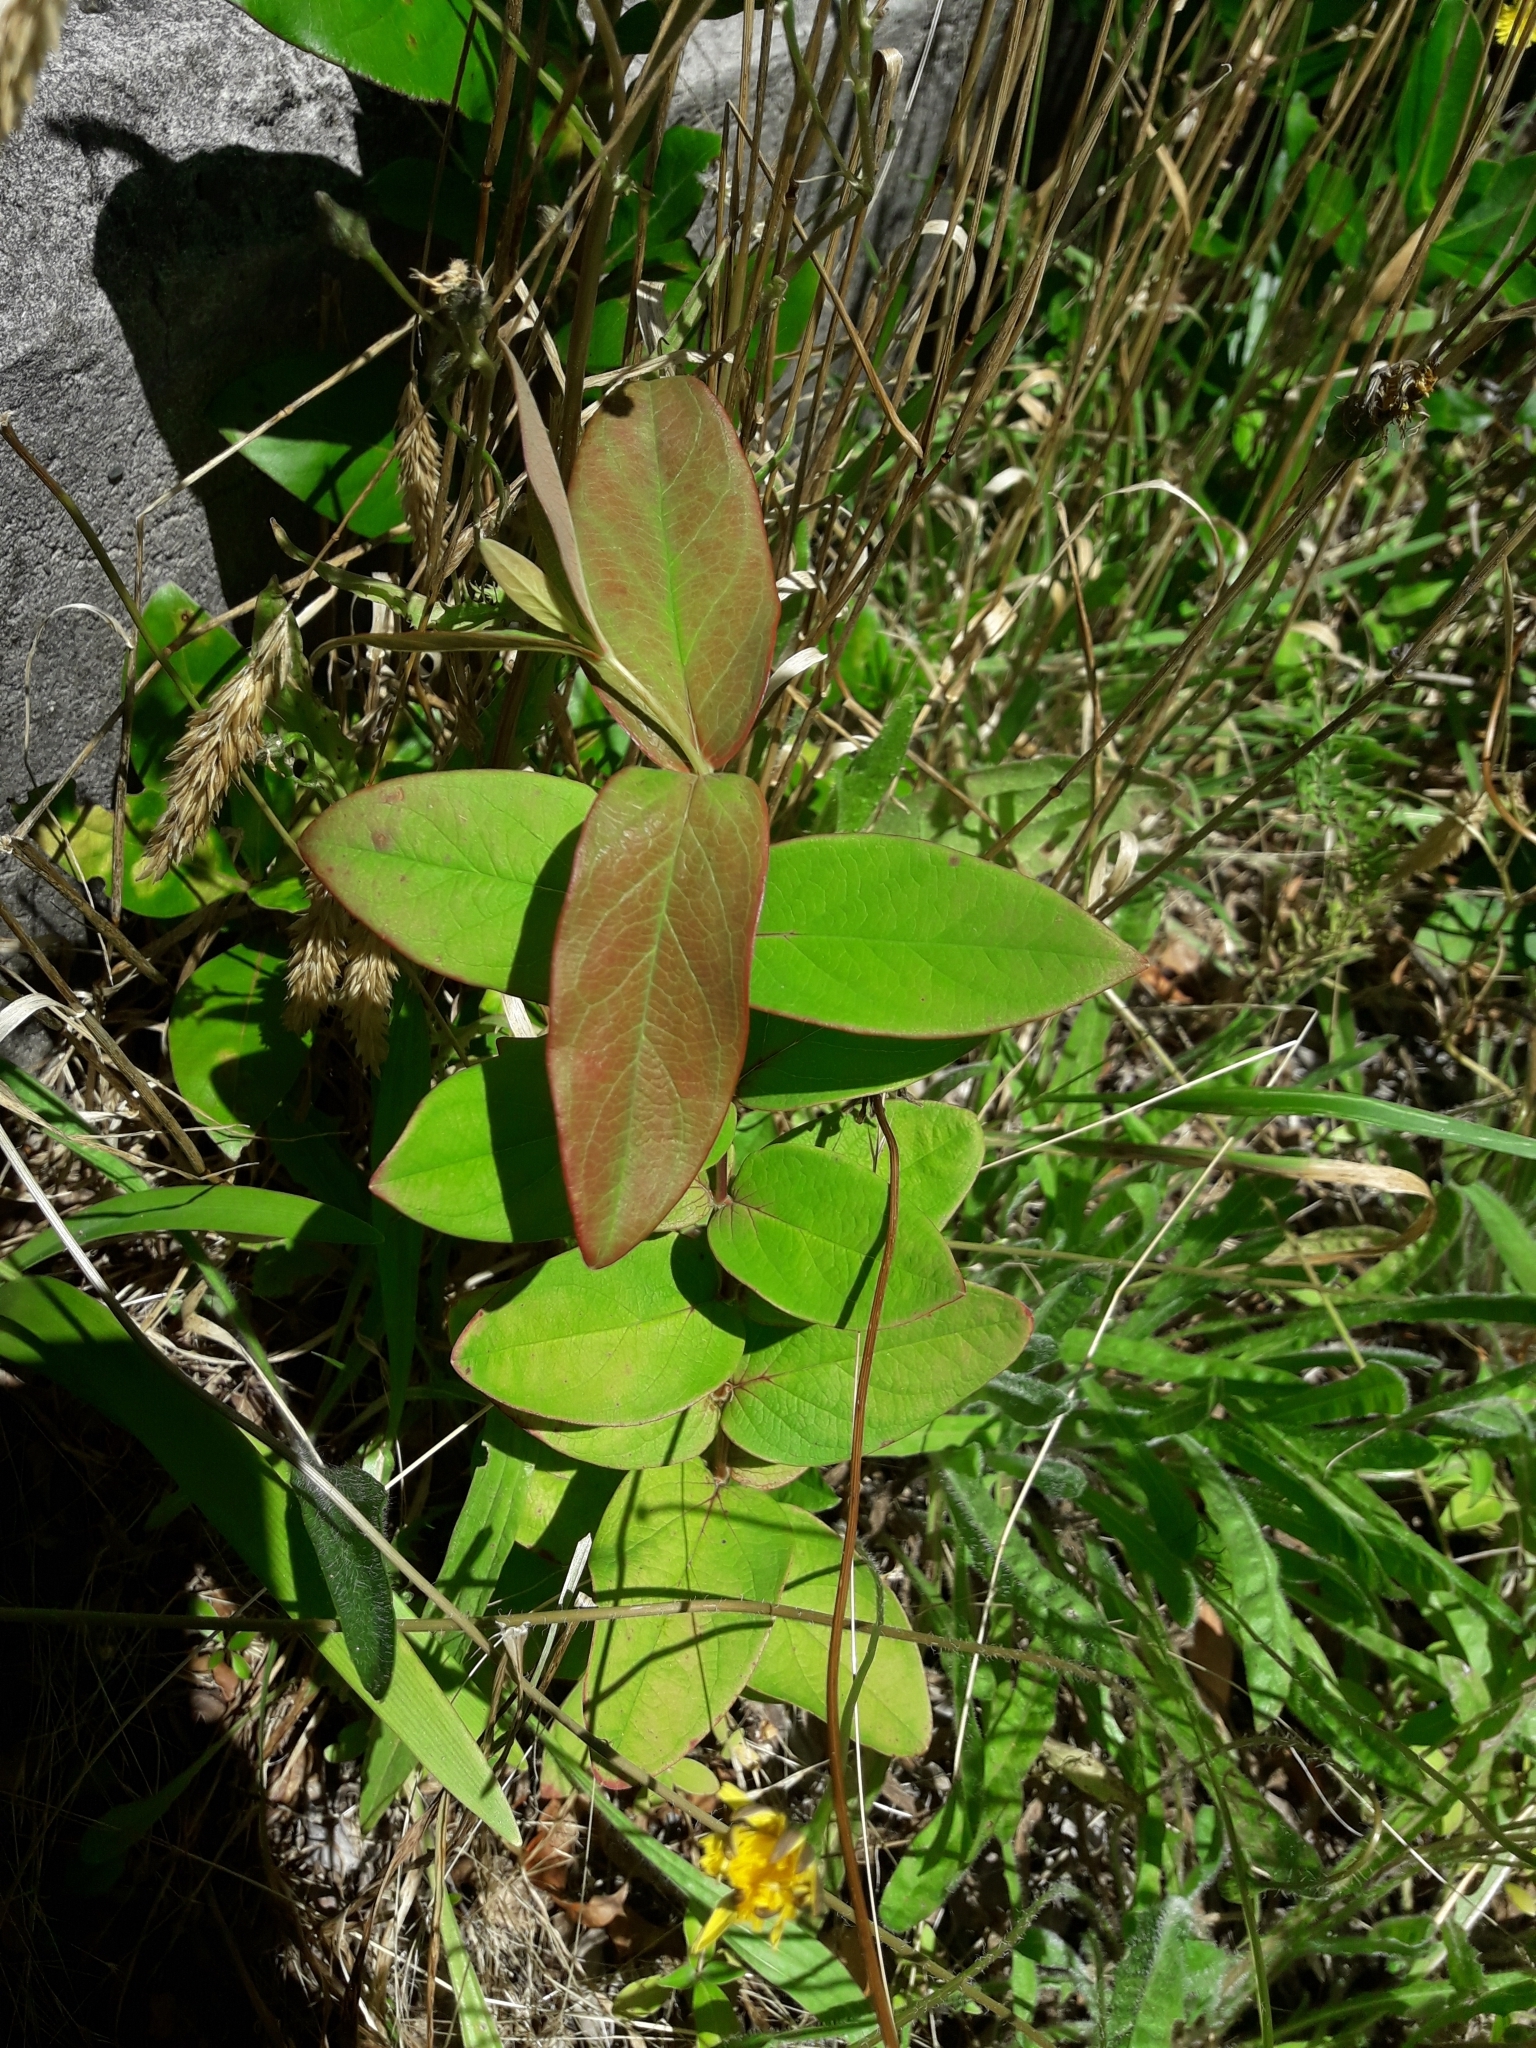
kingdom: Plantae
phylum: Tracheophyta
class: Magnoliopsida
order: Malpighiales
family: Hypericaceae
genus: Hypericum
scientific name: Hypericum androsaemum
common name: Sweet-amber
